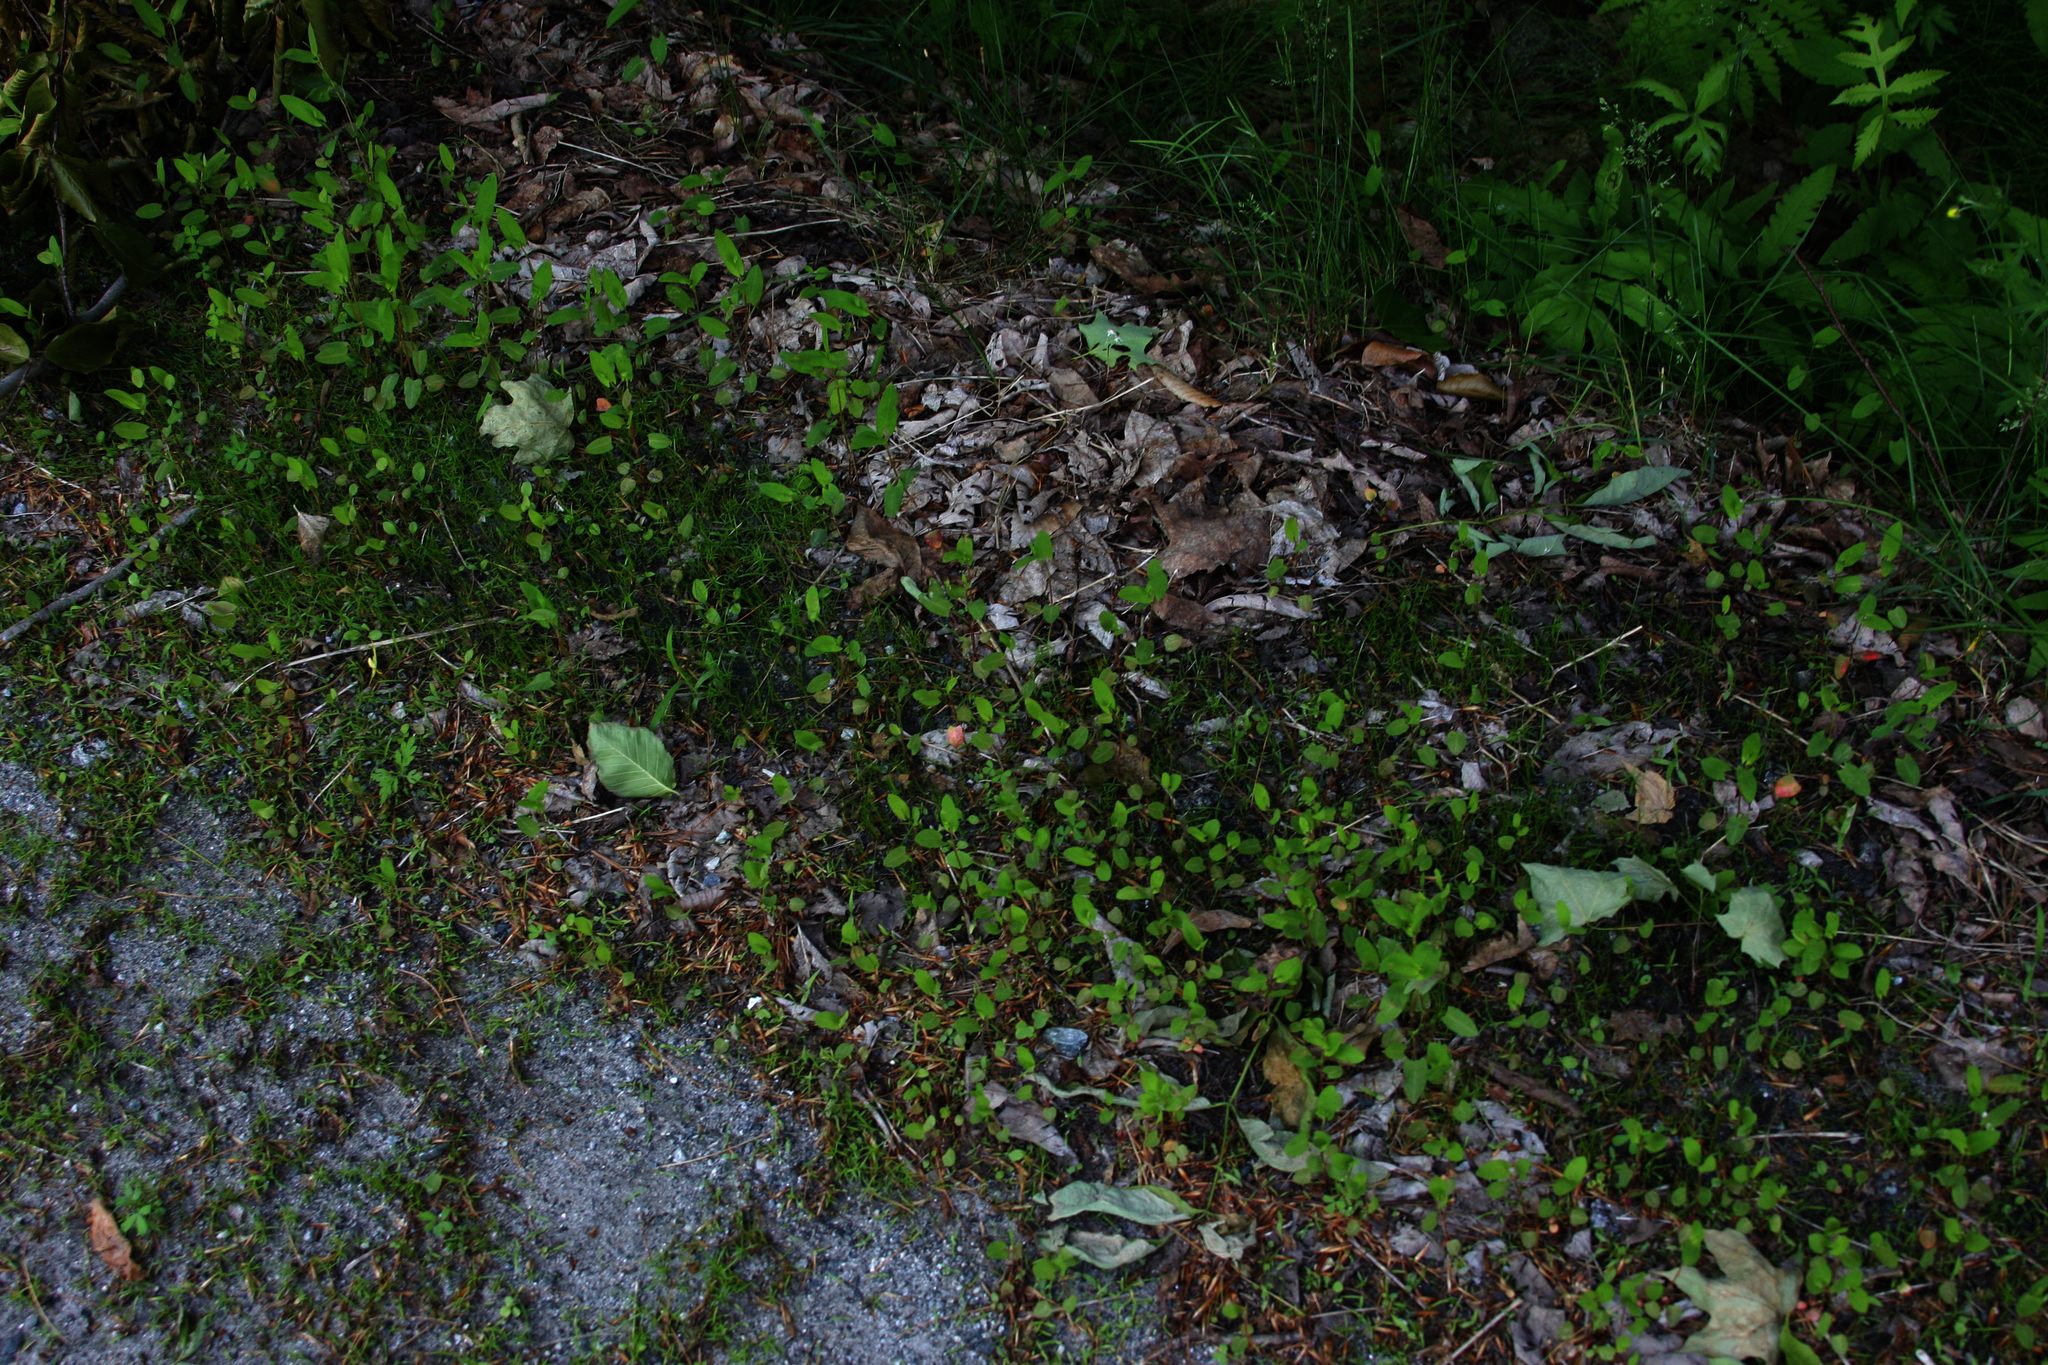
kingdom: Plantae
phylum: Tracheophyta
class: Magnoliopsida
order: Caryophyllales
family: Polygonaceae
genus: Persicaria
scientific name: Persicaria sagittata
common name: American tearthumb
